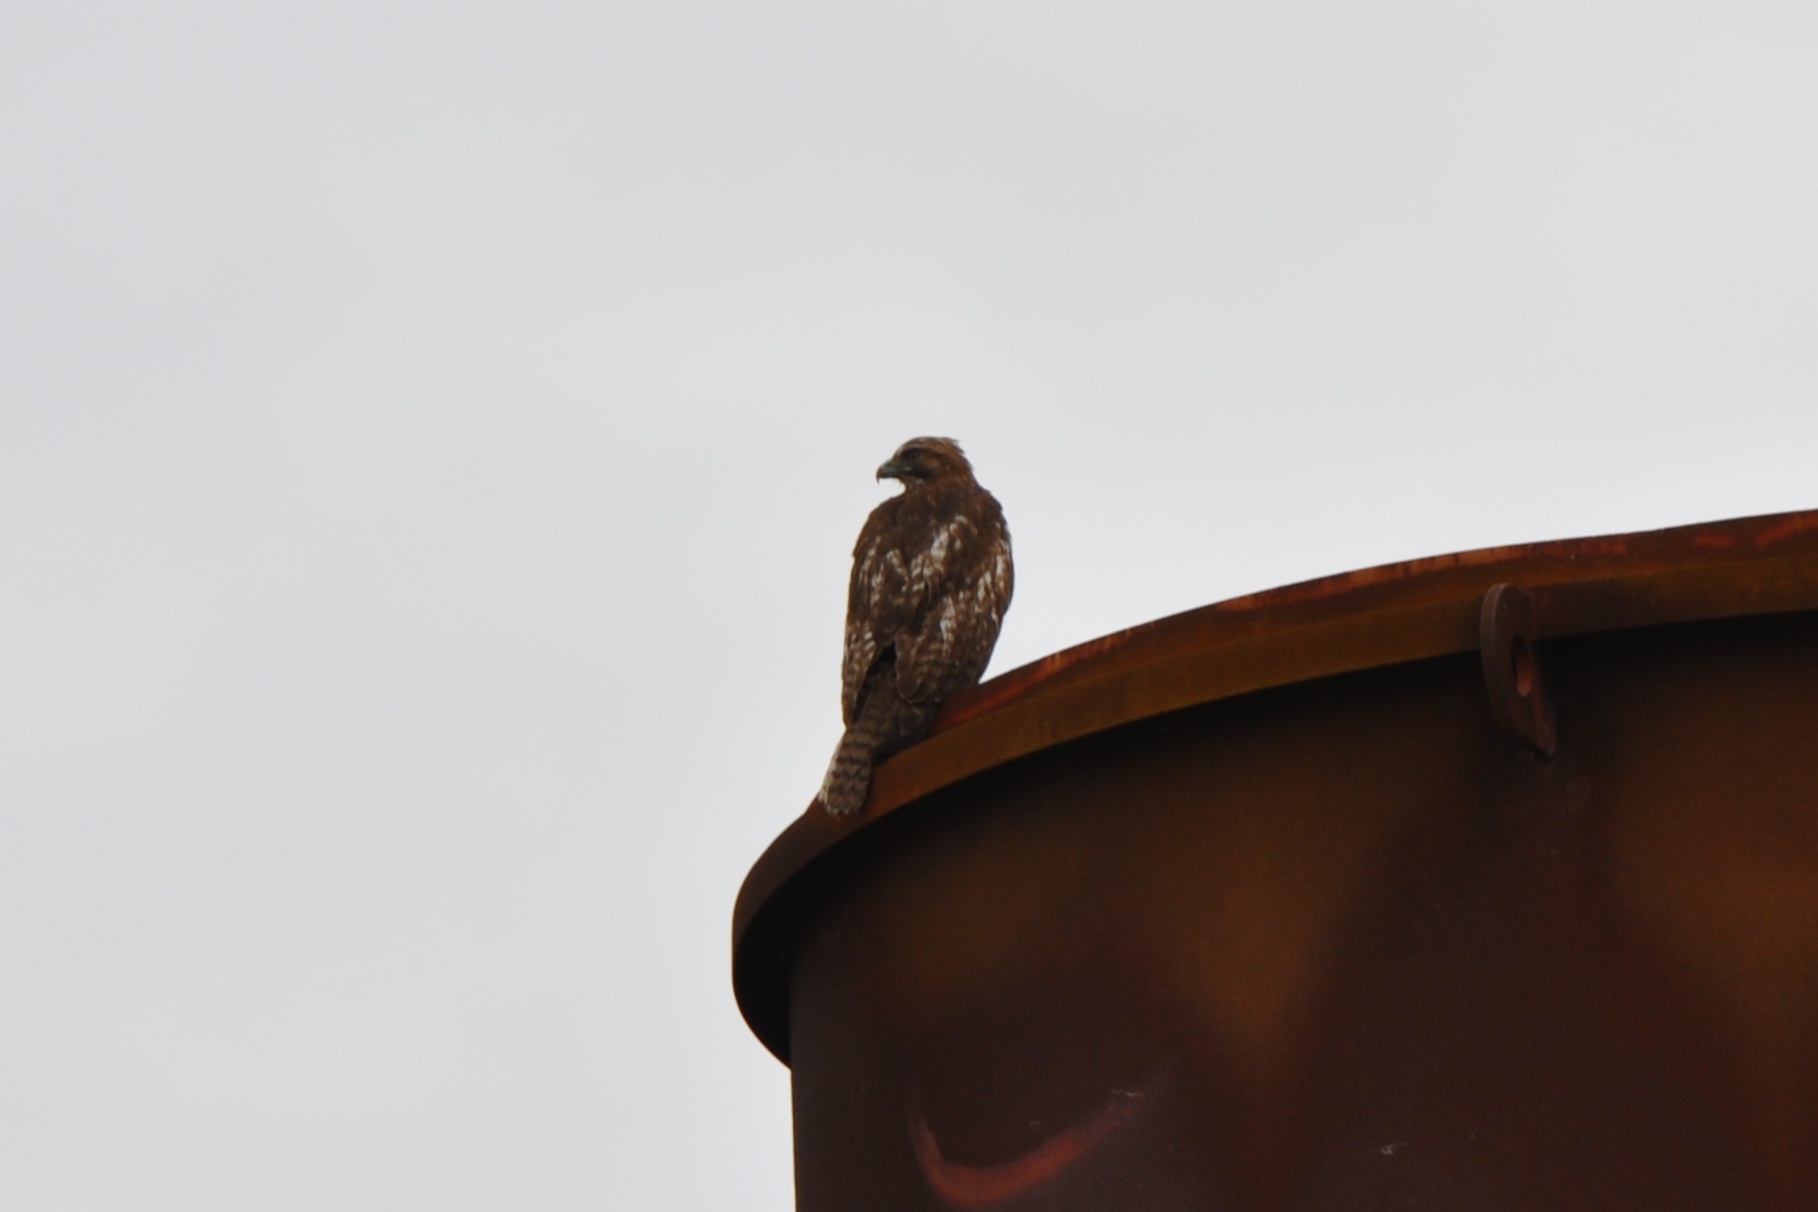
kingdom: Animalia
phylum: Chordata
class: Aves
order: Accipitriformes
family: Accipitridae
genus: Buteo
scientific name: Buteo jamaicensis
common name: Red-tailed hawk
